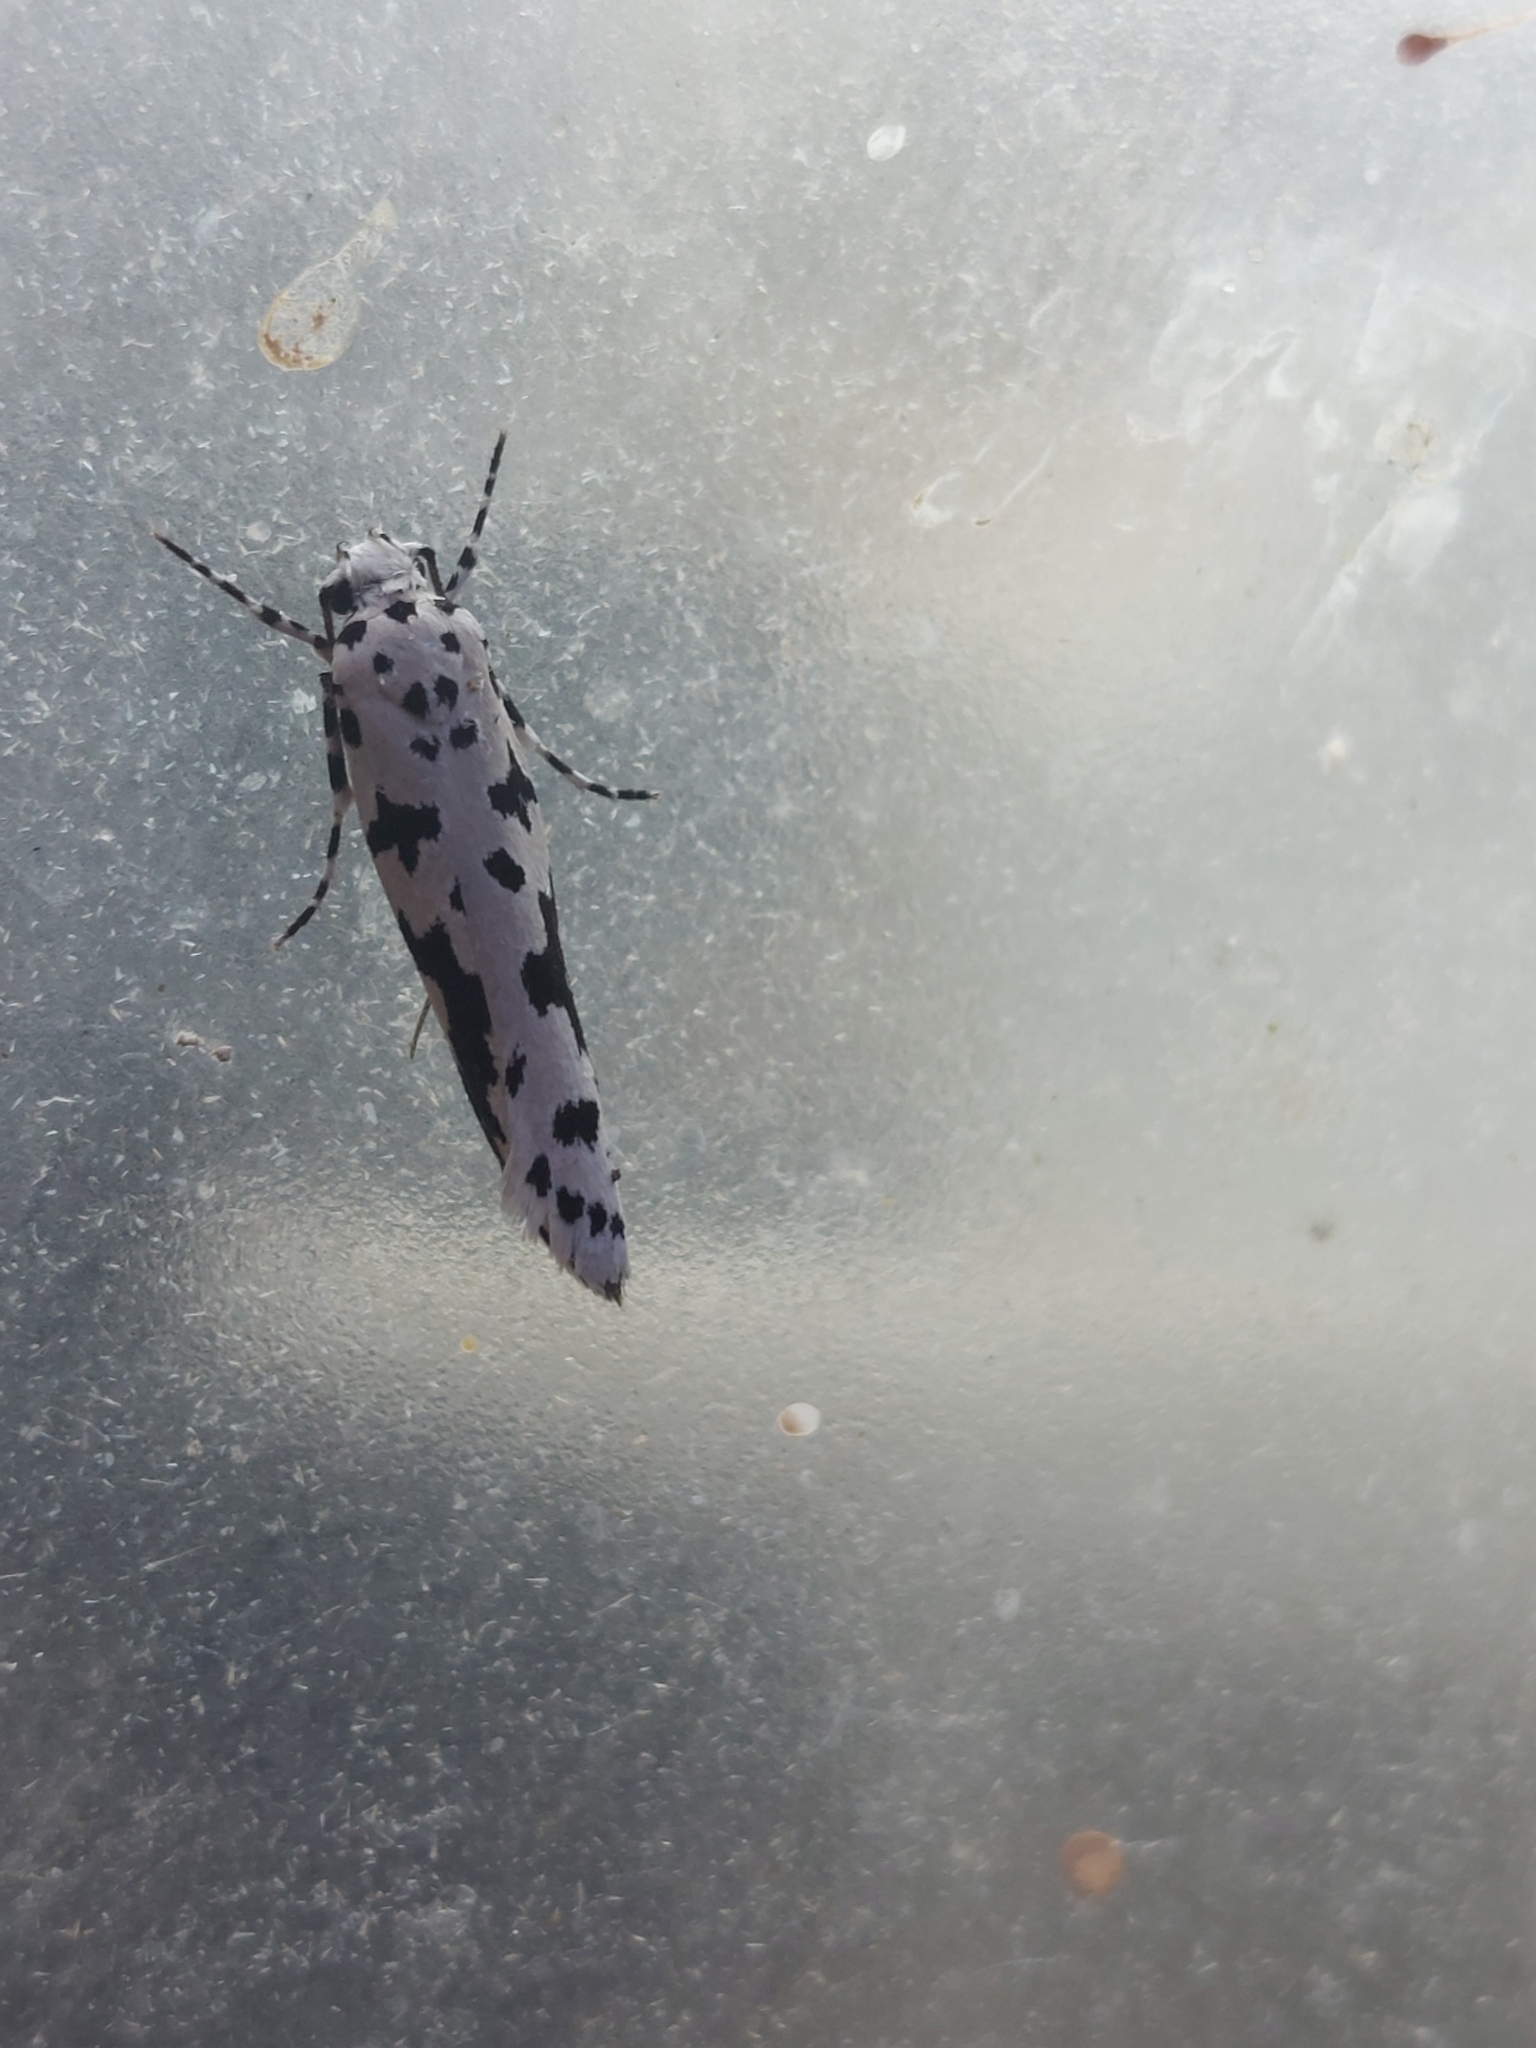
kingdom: Animalia
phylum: Arthropoda
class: Insecta
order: Lepidoptera
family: Ethmiidae
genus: Ethmia
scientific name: Ethmia sabiella
